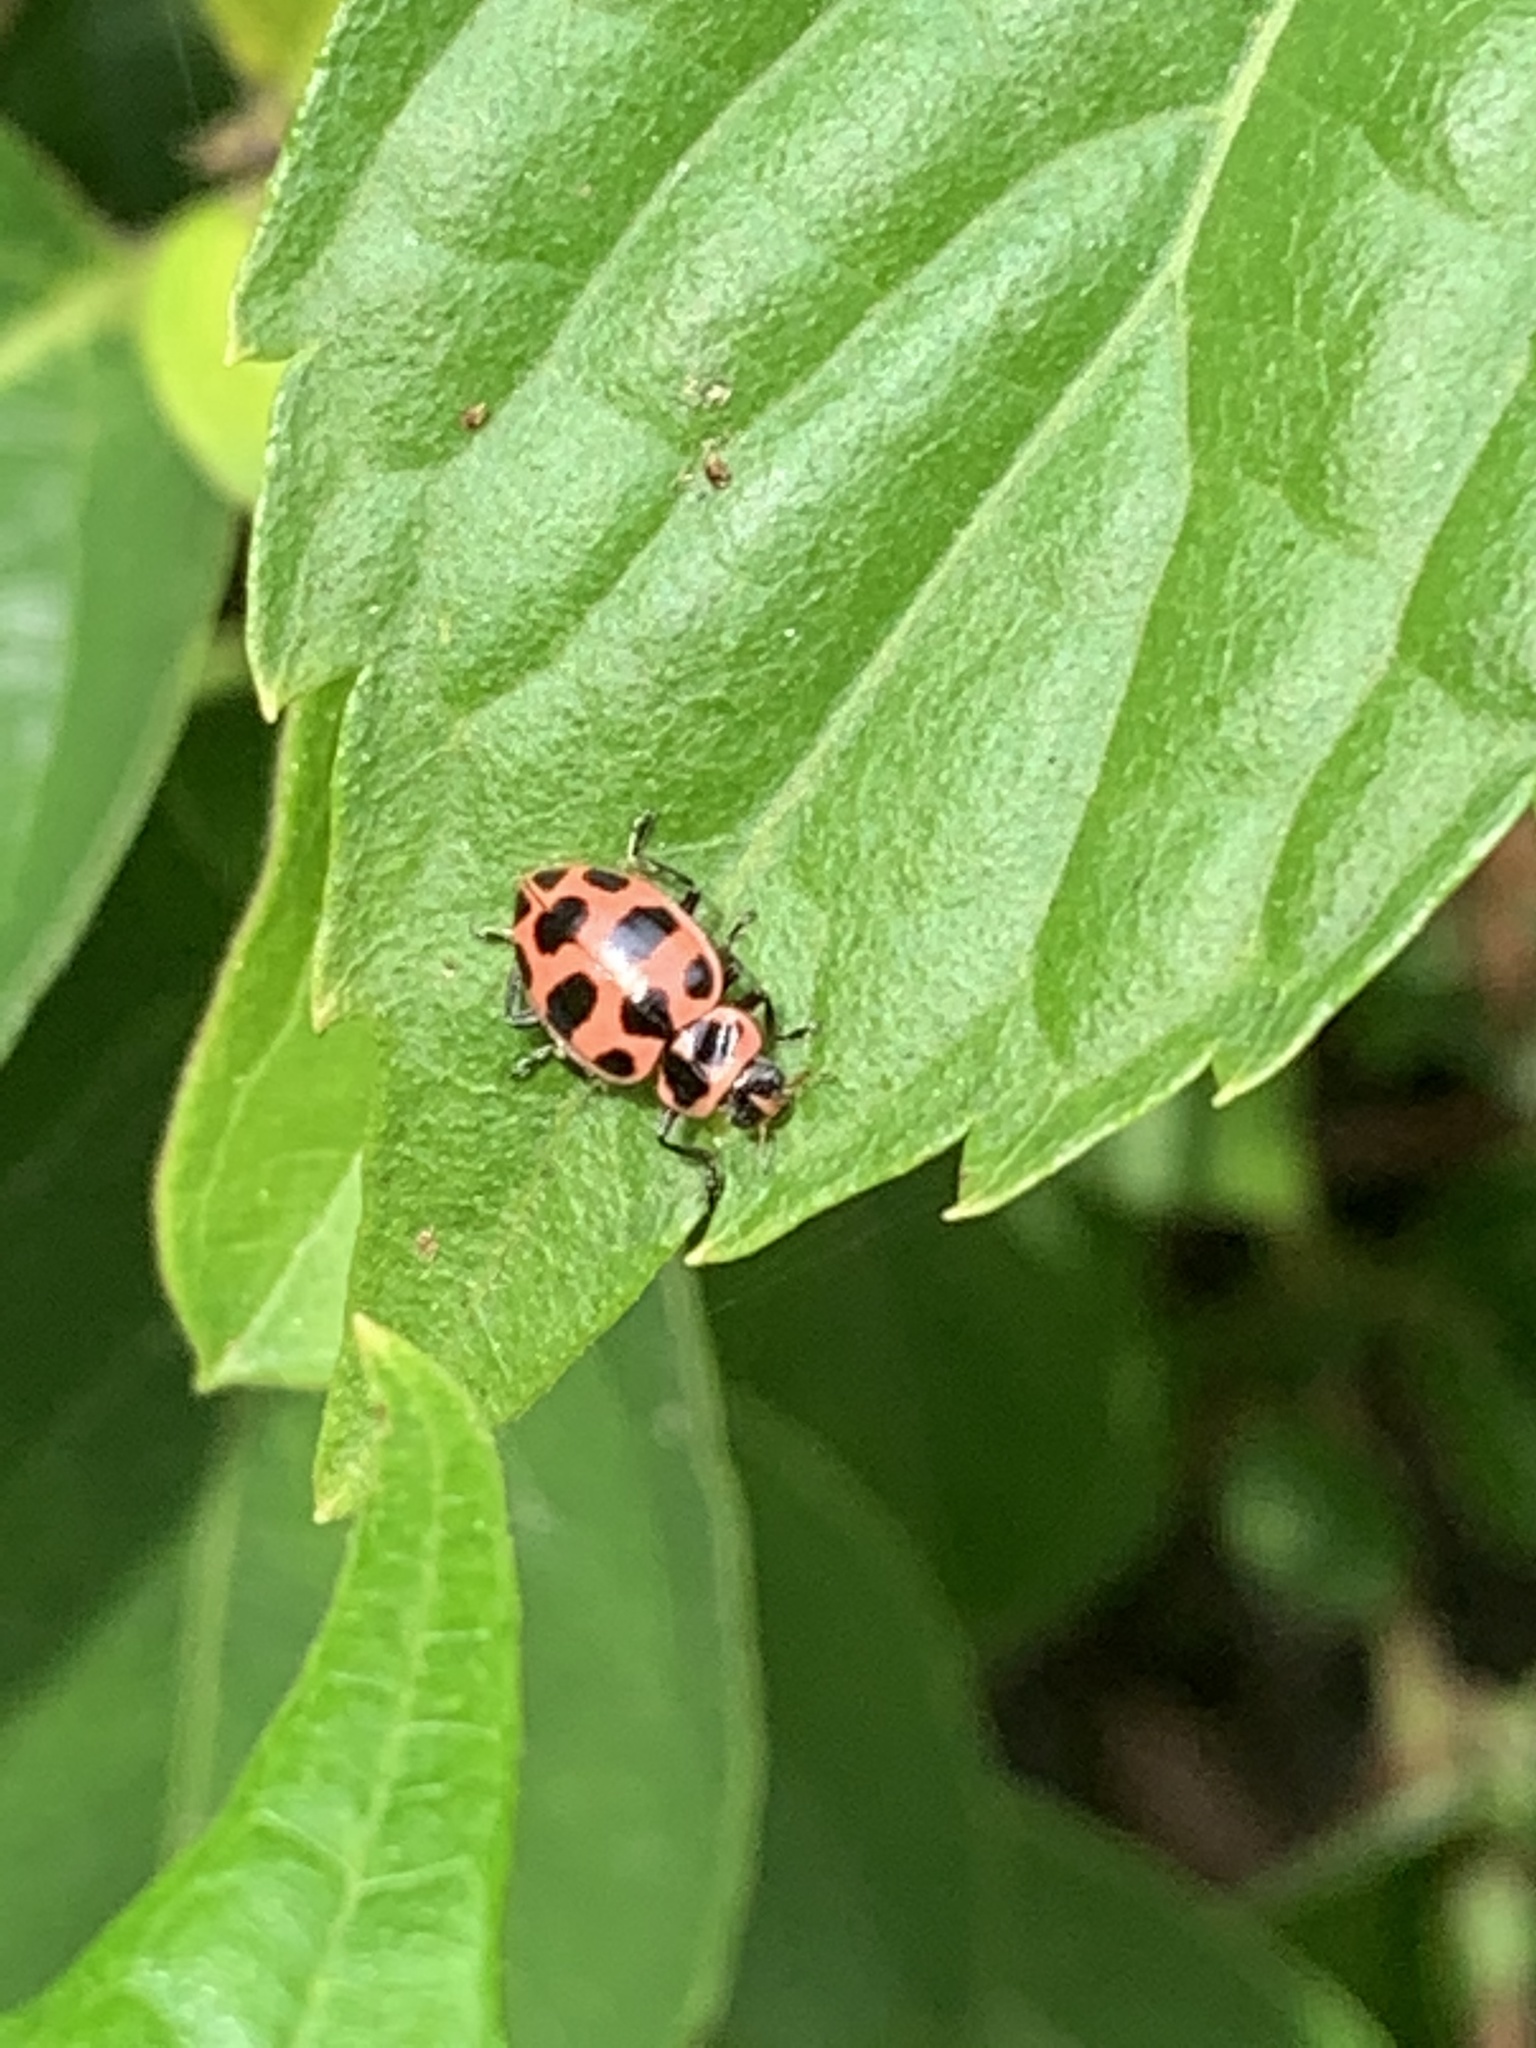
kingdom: Animalia
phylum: Arthropoda
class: Insecta
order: Coleoptera
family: Coccinellidae
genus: Coleomegilla
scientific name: Coleomegilla maculata
